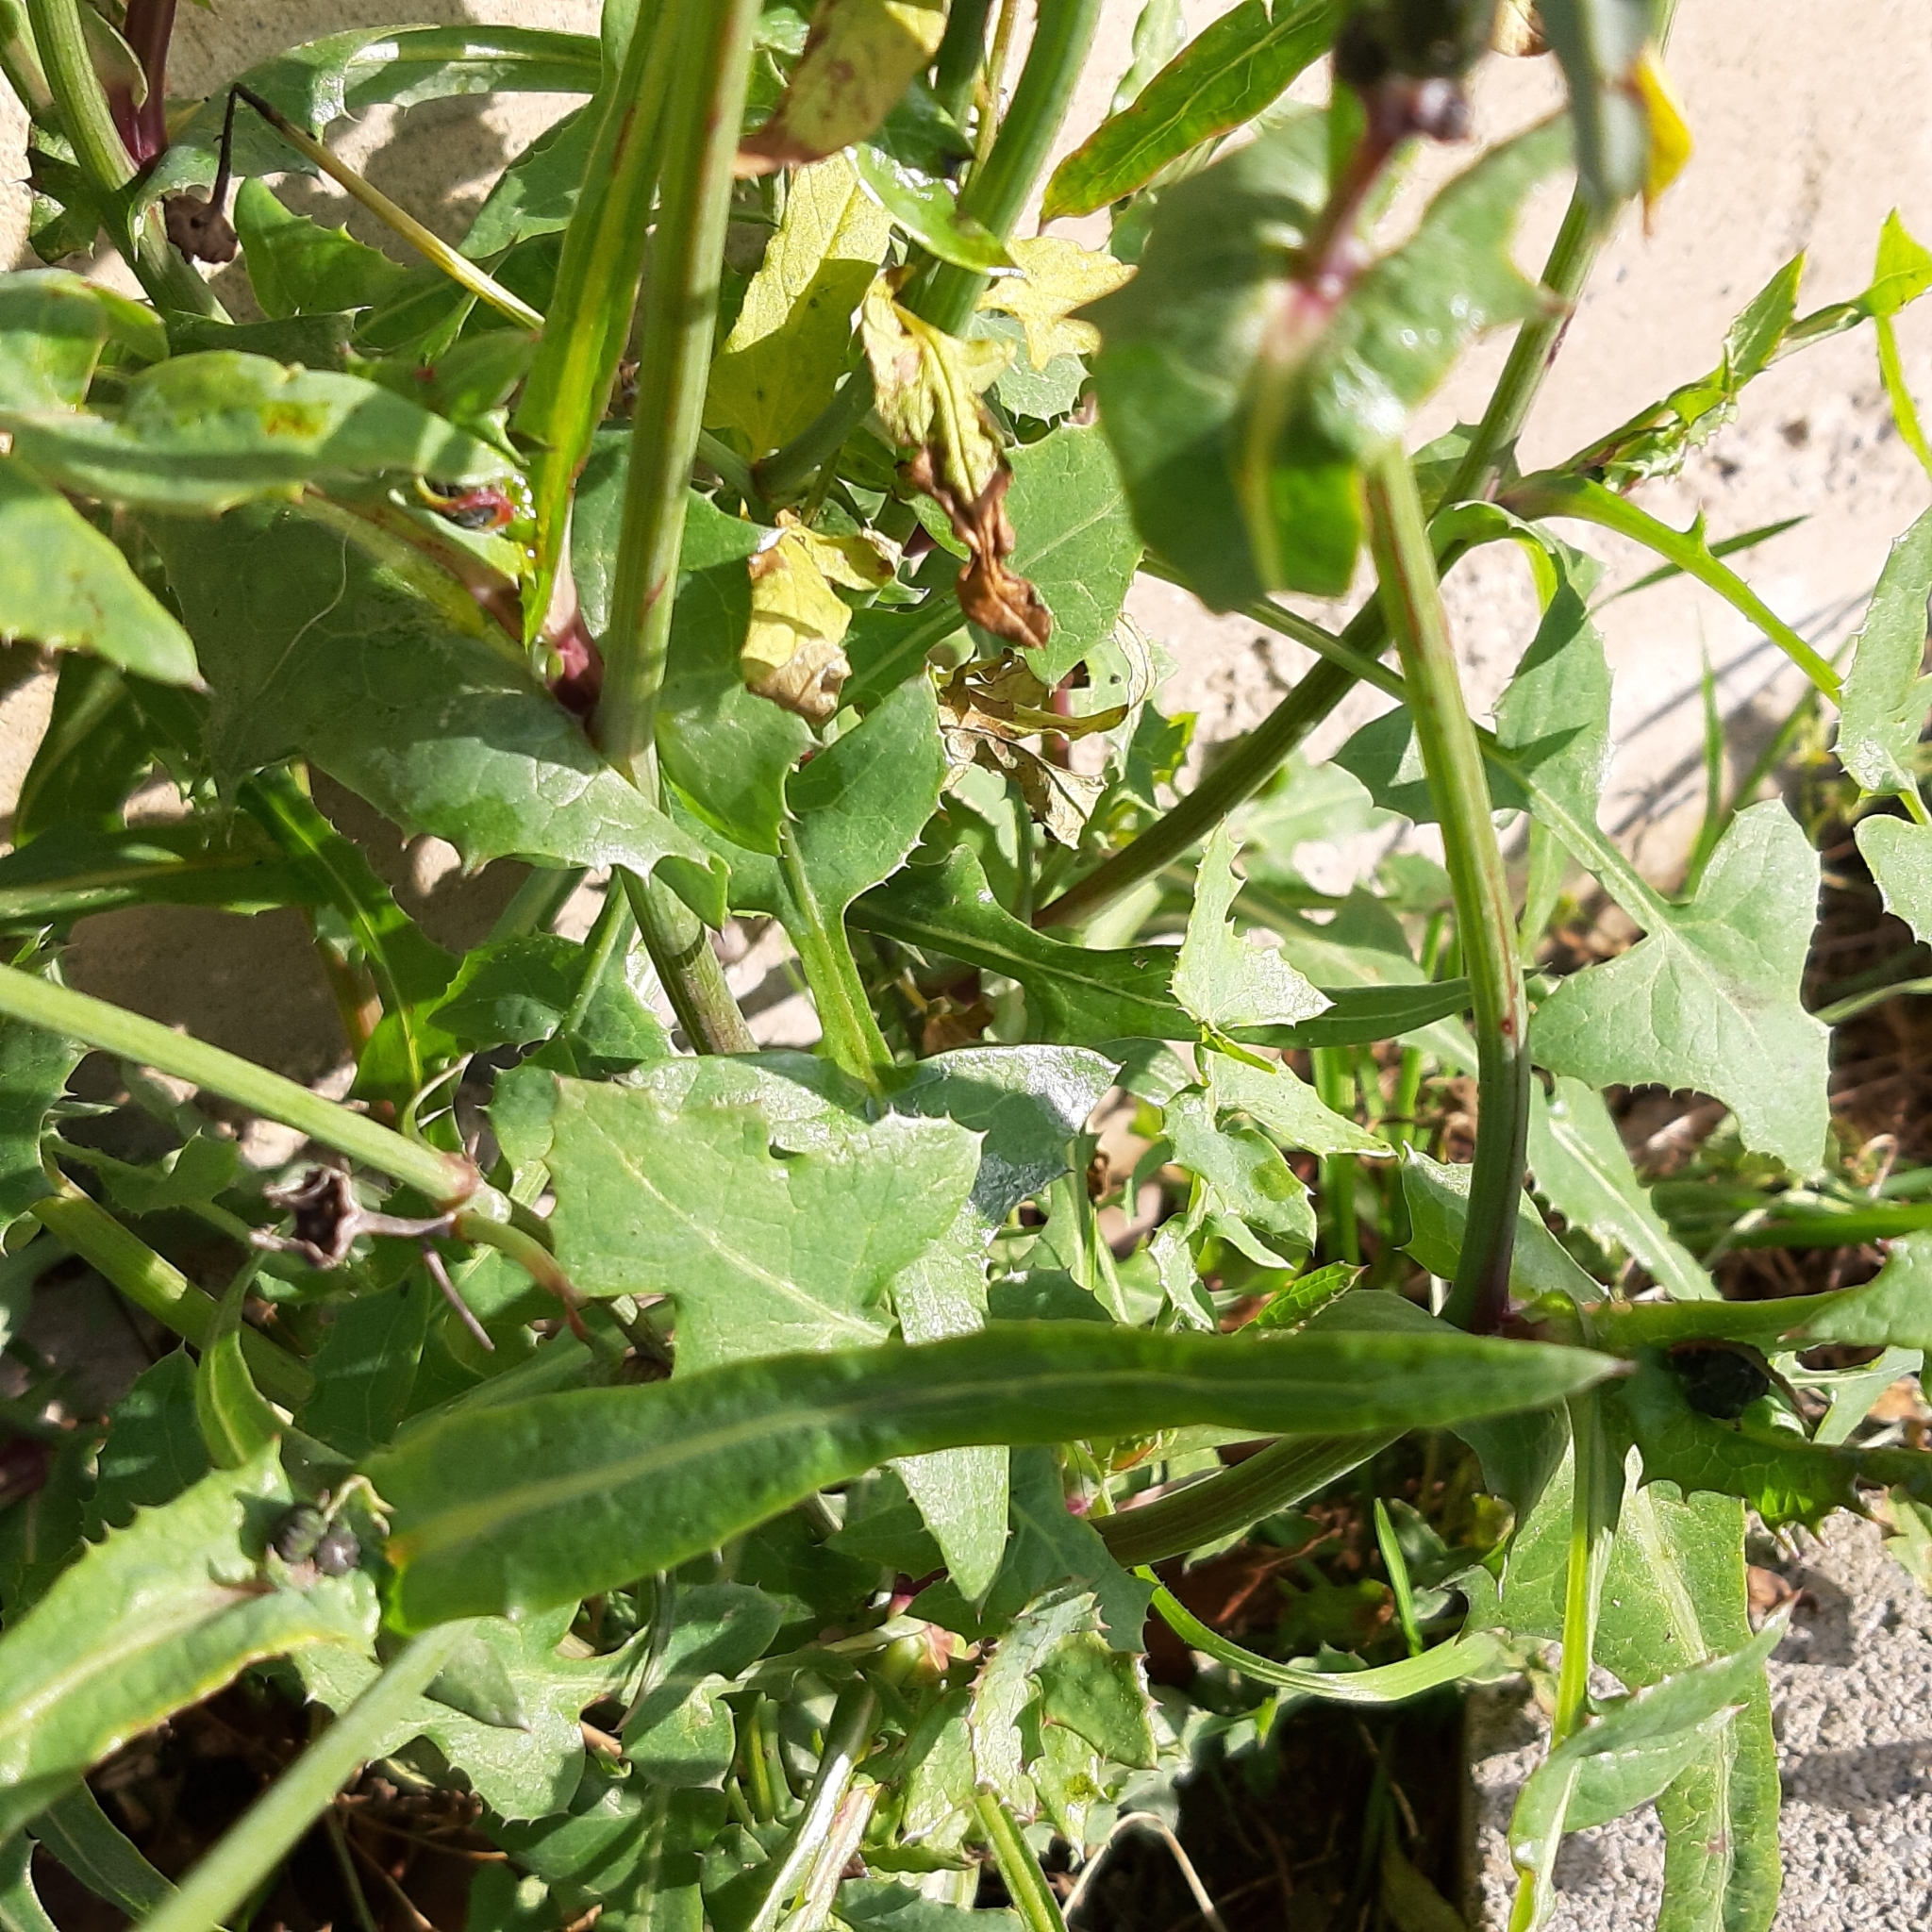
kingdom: Plantae
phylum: Tracheophyta
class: Magnoliopsida
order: Asterales
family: Asteraceae
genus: Sonchus
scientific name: Sonchus oleraceus
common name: Common sowthistle
